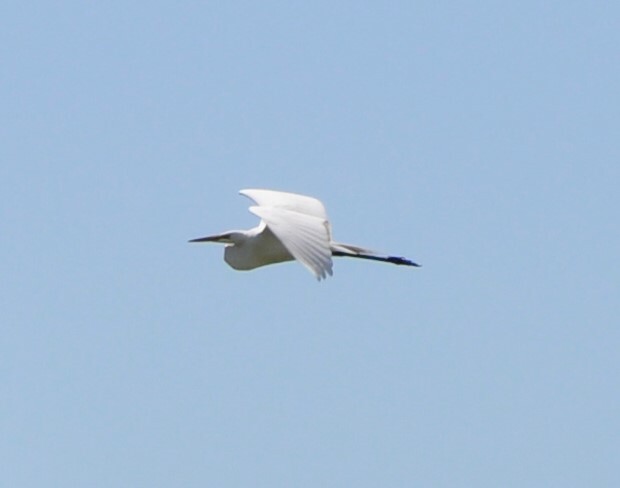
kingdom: Animalia
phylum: Chordata
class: Aves
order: Pelecaniformes
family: Ardeidae
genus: Ardea
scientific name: Ardea alba
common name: Great egret
